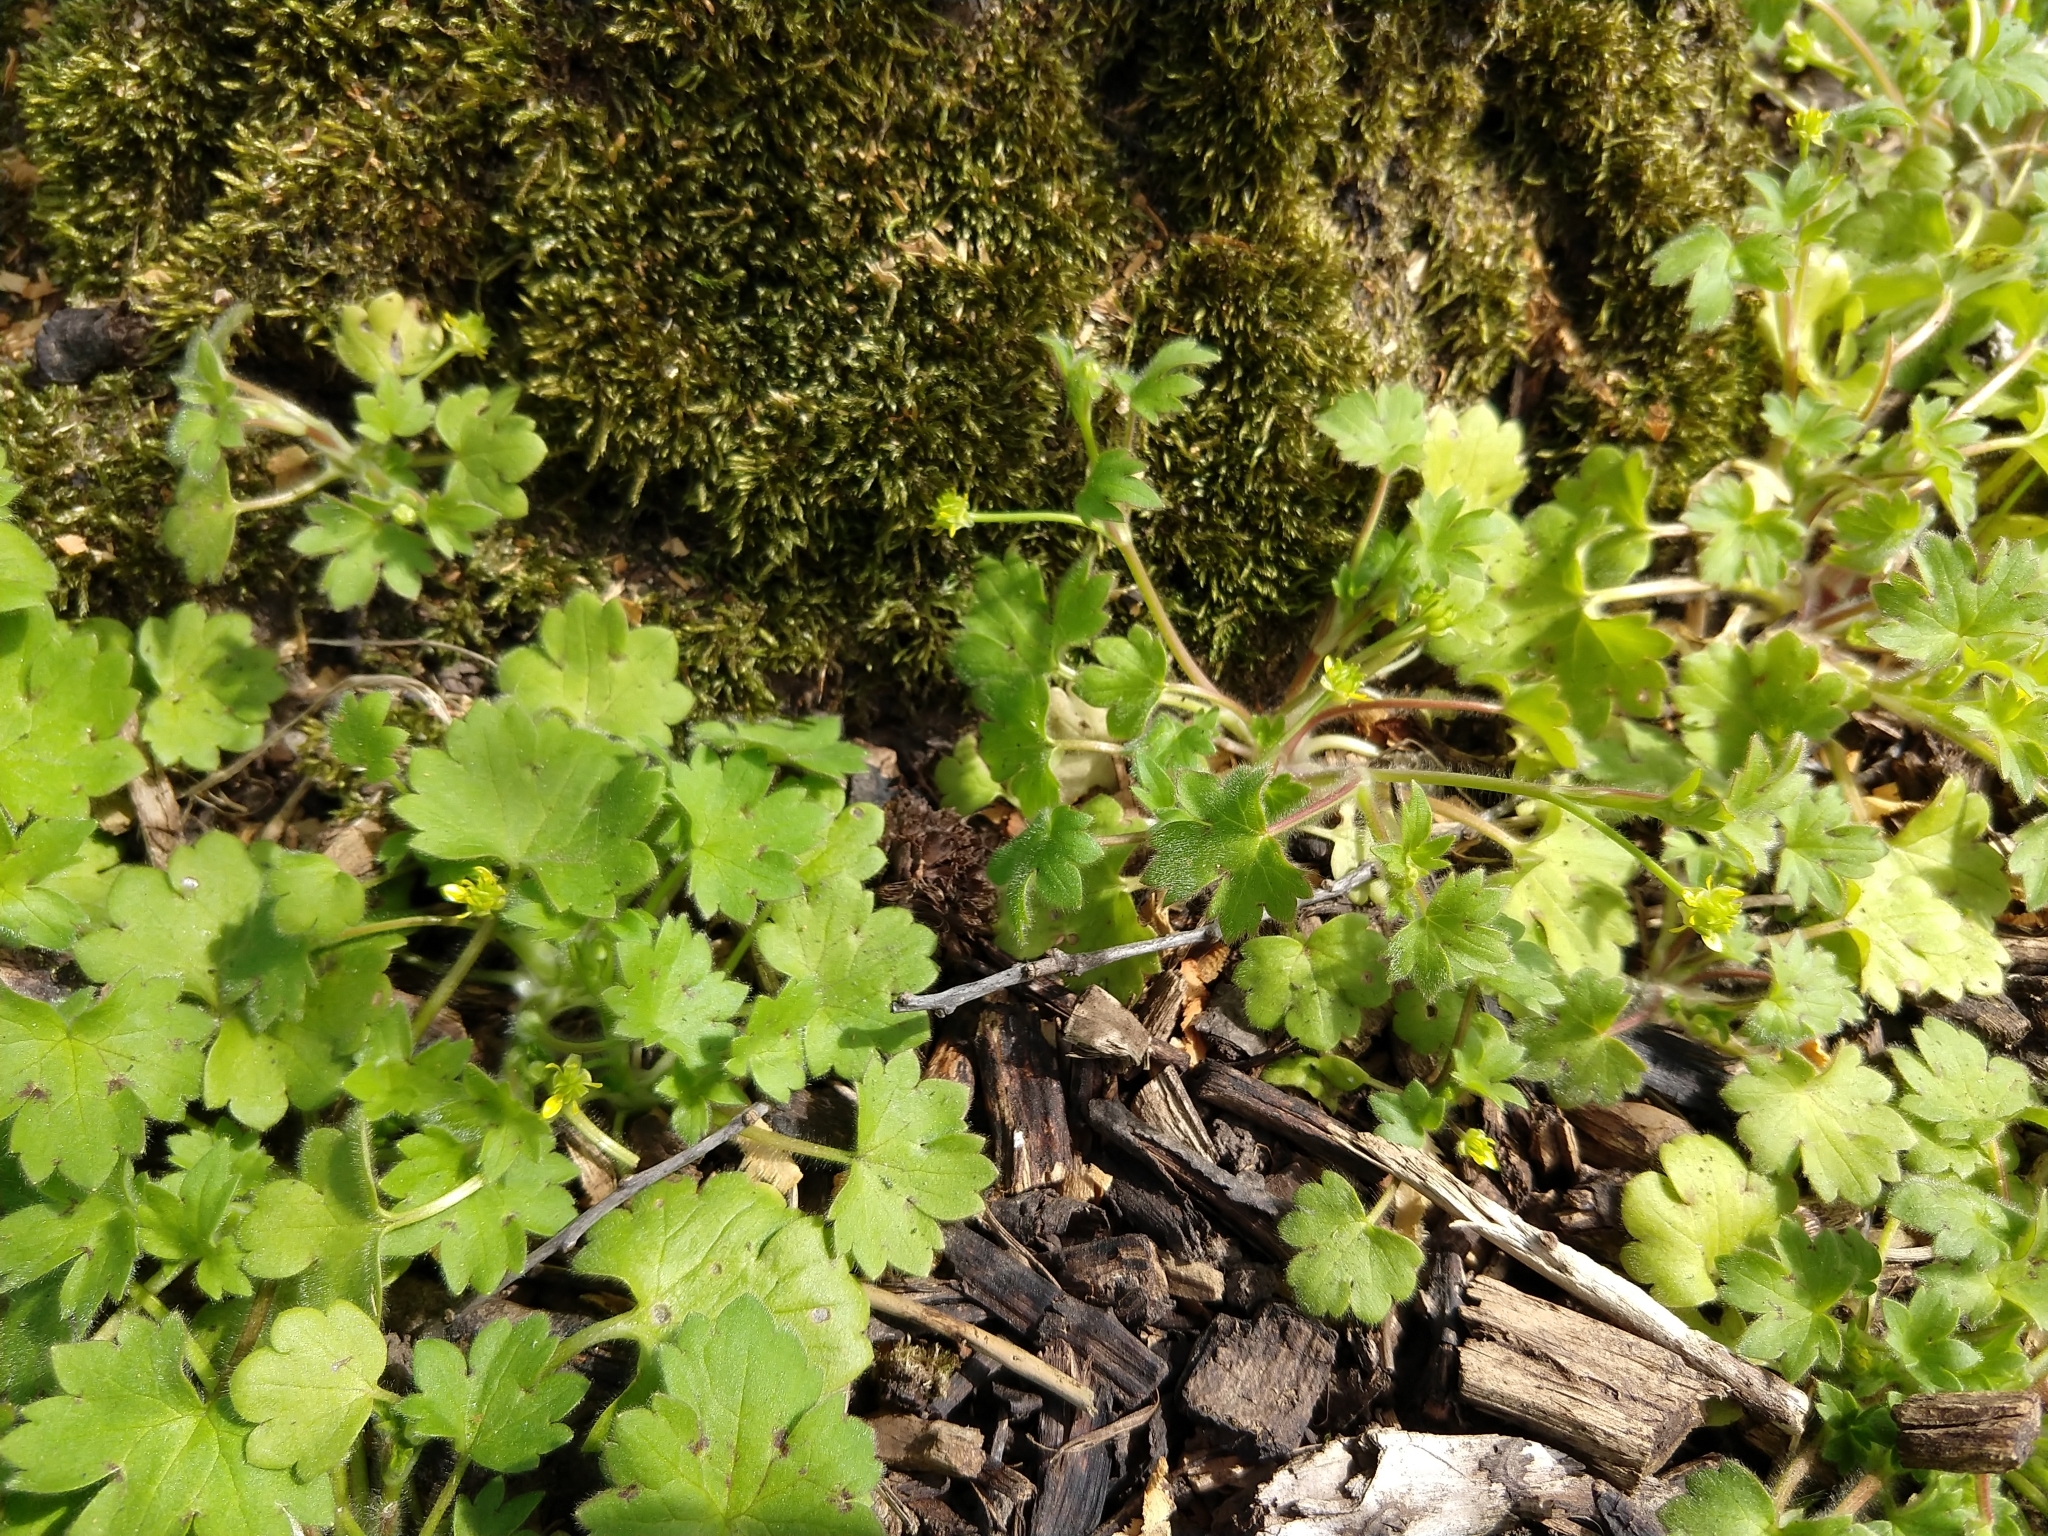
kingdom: Plantae
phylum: Tracheophyta
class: Magnoliopsida
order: Ranunculales
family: Ranunculaceae
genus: Ranunculus
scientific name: Ranunculus parviflorus
